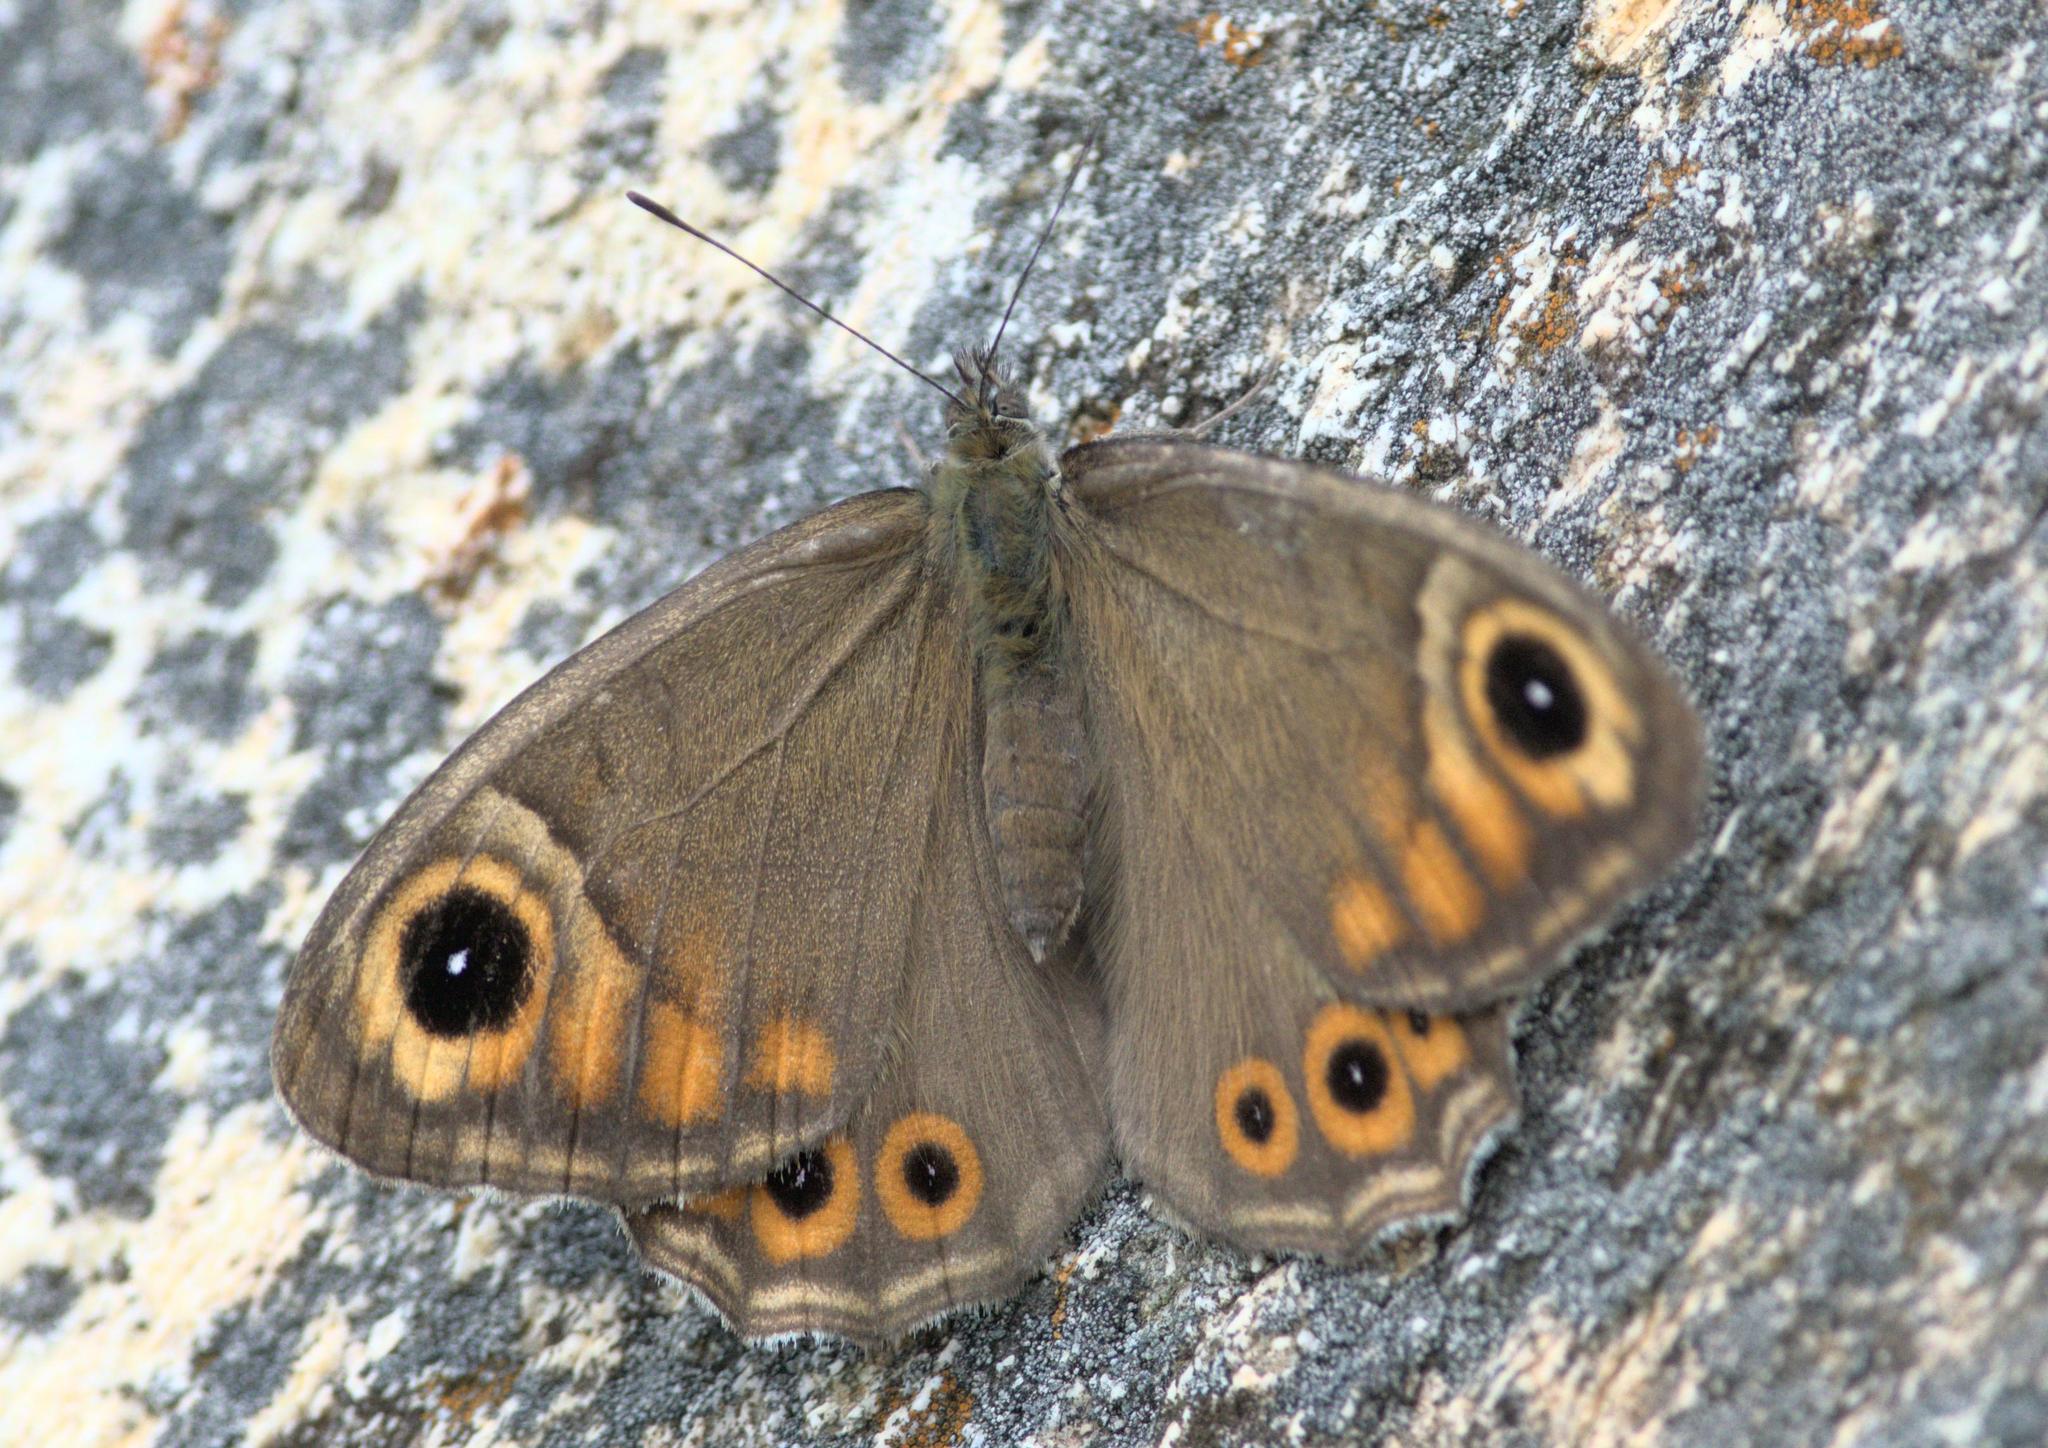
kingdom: Animalia
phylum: Arthropoda
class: Insecta
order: Lepidoptera
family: Nymphalidae
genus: Pararge
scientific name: Pararge Lasiommata schakra
